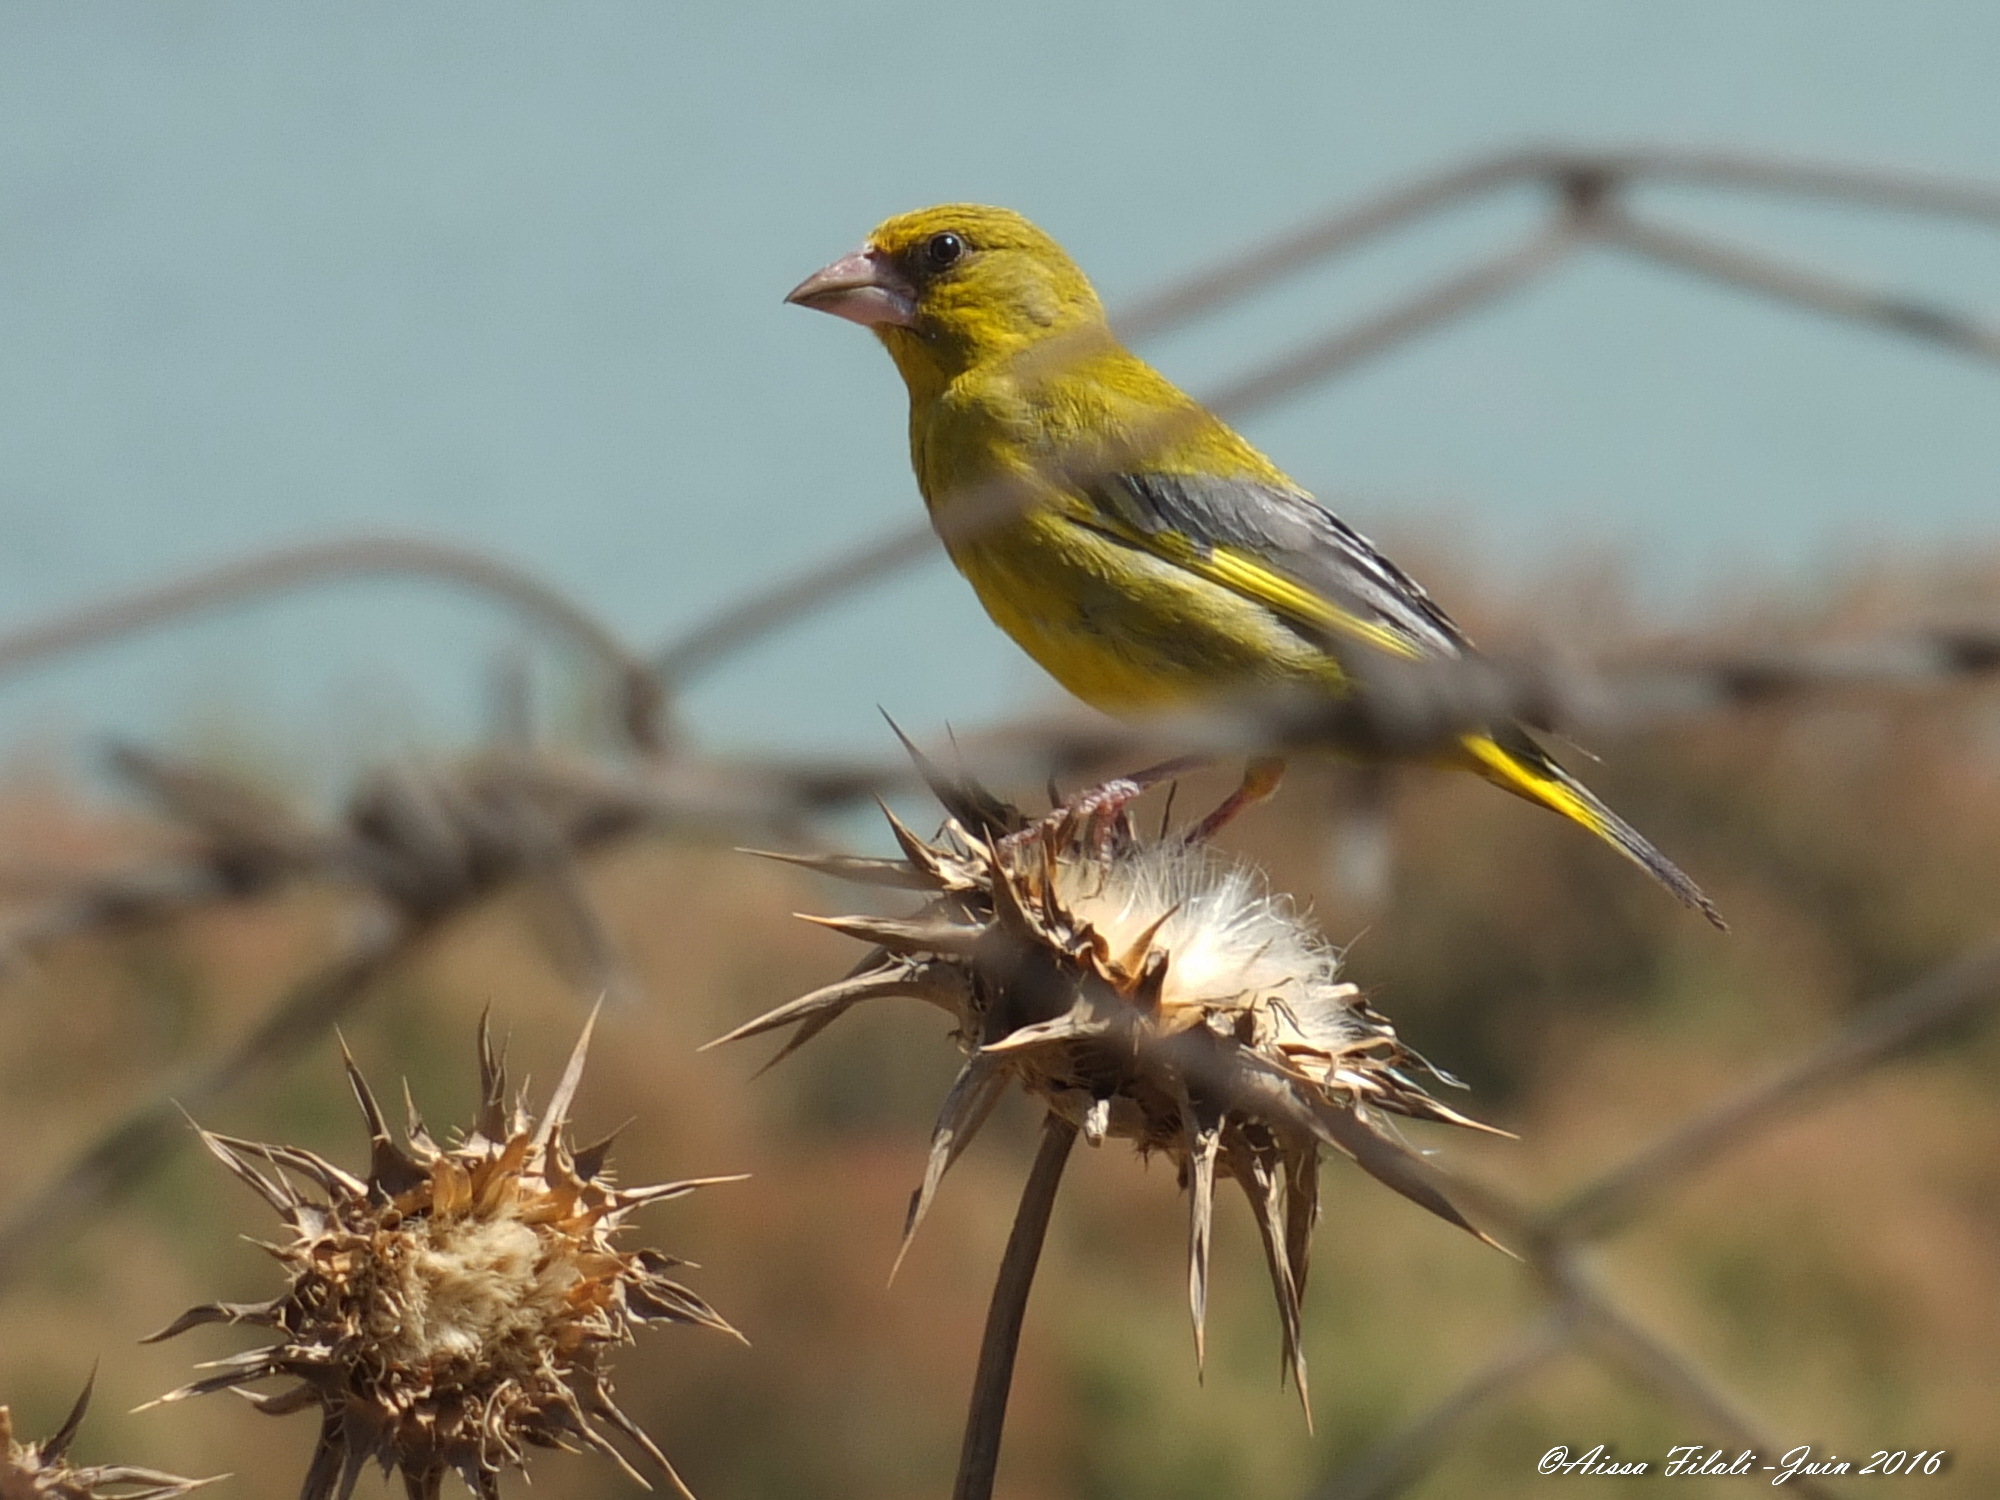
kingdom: Plantae
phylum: Tracheophyta
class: Liliopsida
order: Poales
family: Poaceae
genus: Chloris
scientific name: Chloris chloris
